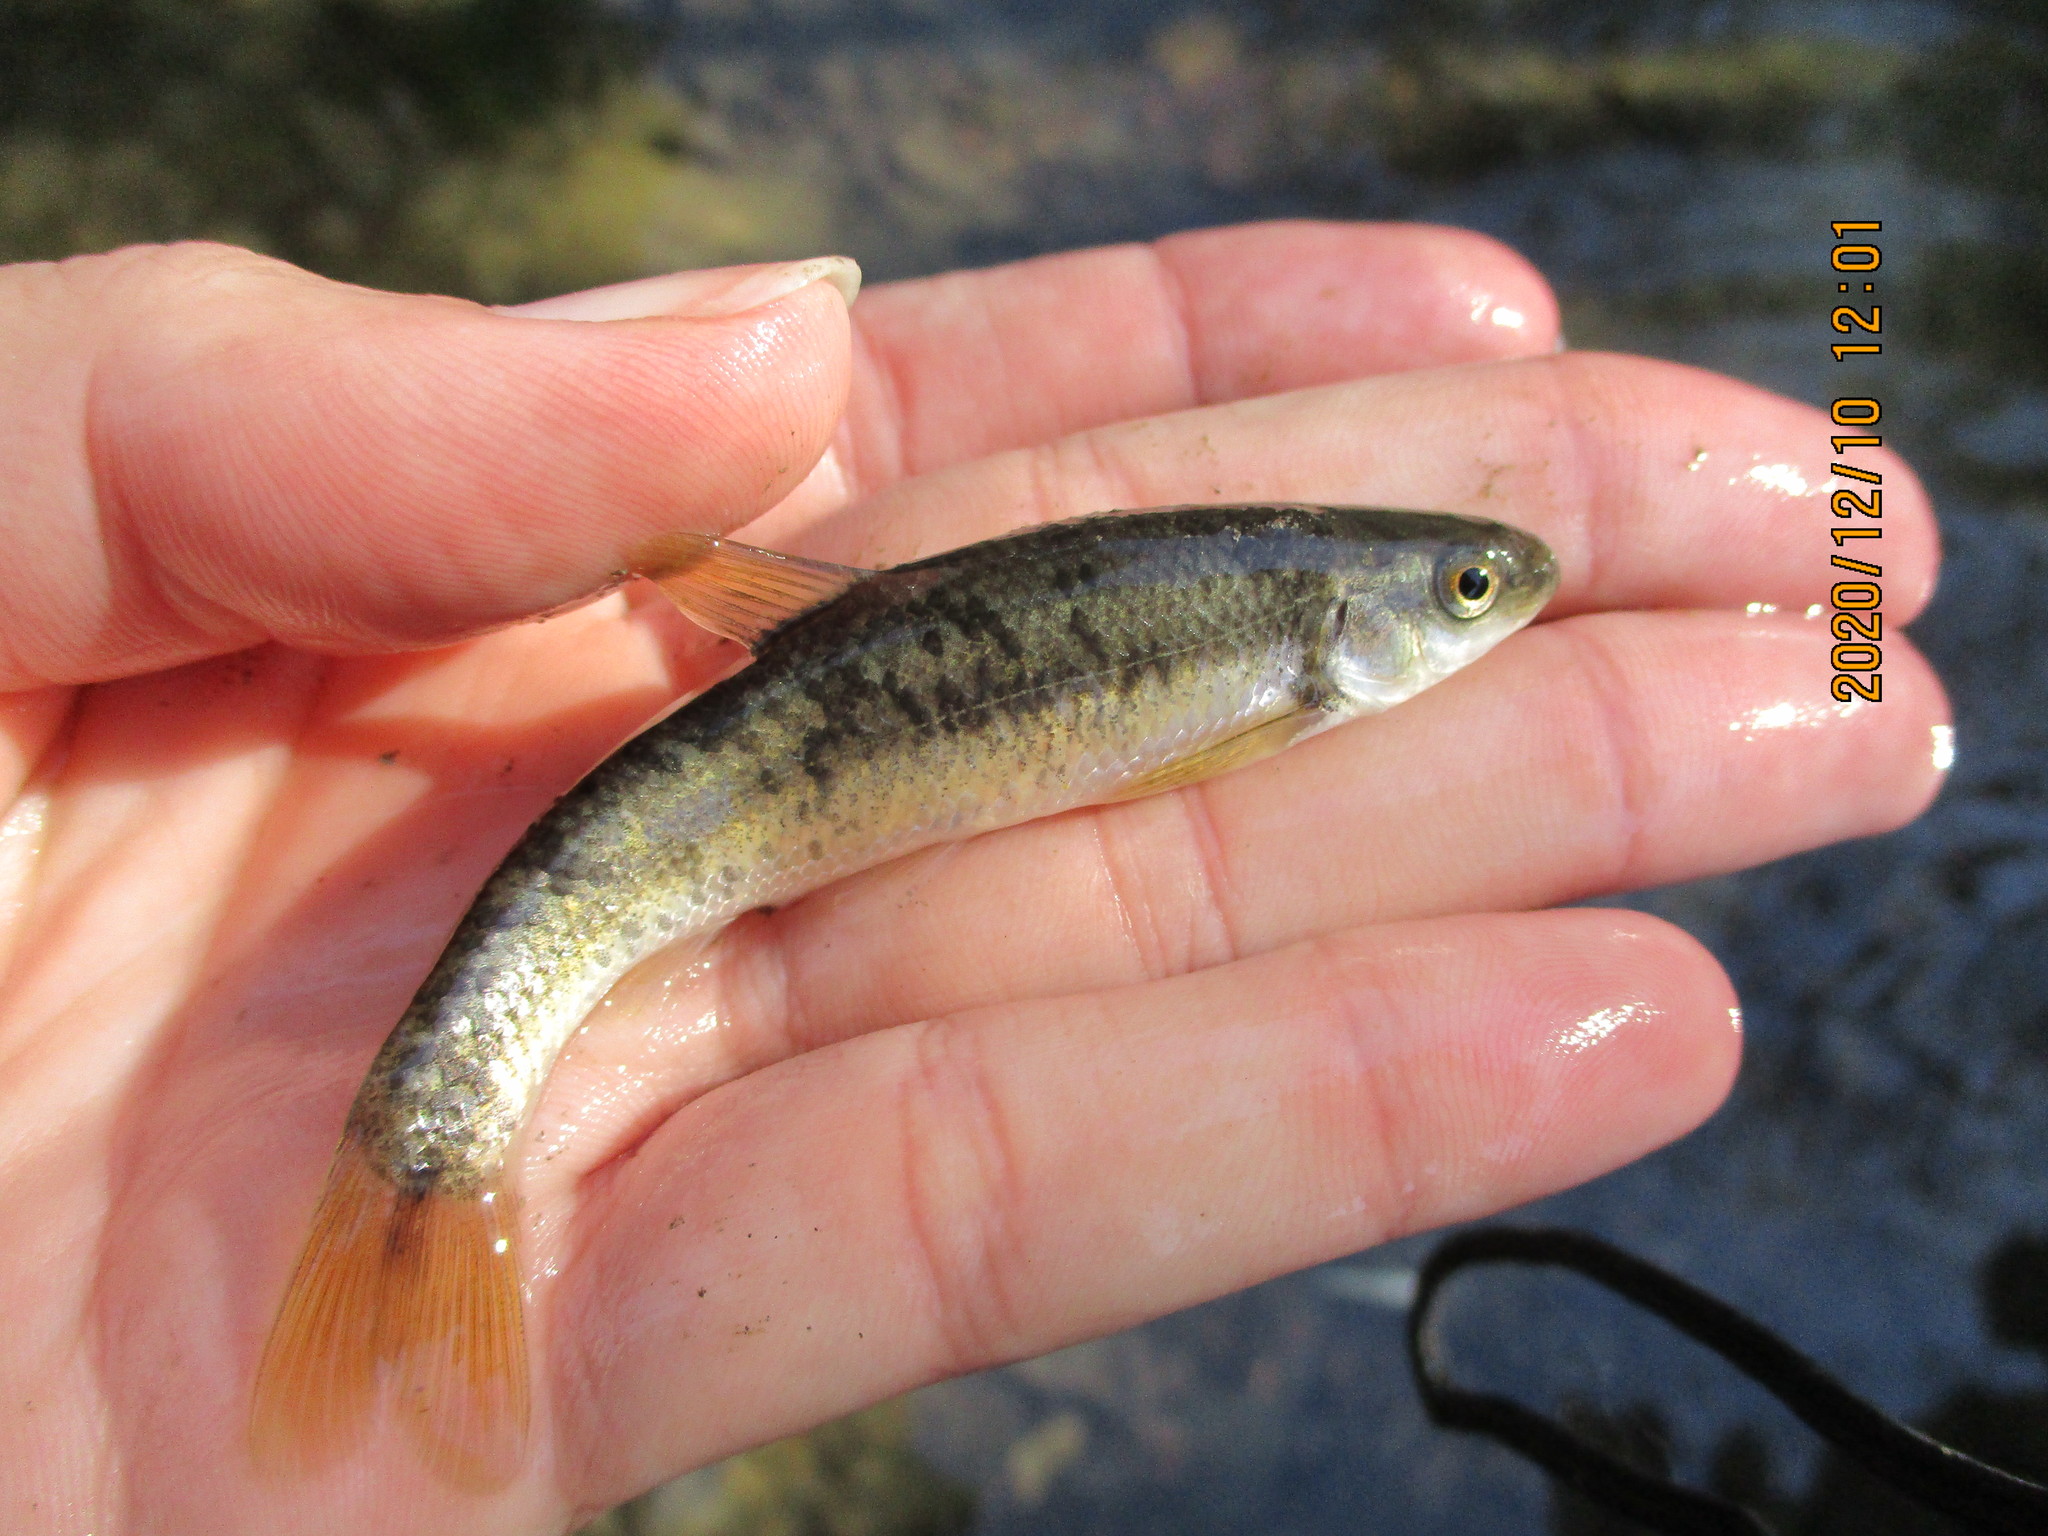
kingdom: Animalia
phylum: Chordata
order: Cypriniformes
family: Cyprinidae
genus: Campostoma
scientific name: Campostoma anomalum
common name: Central stoneroller
